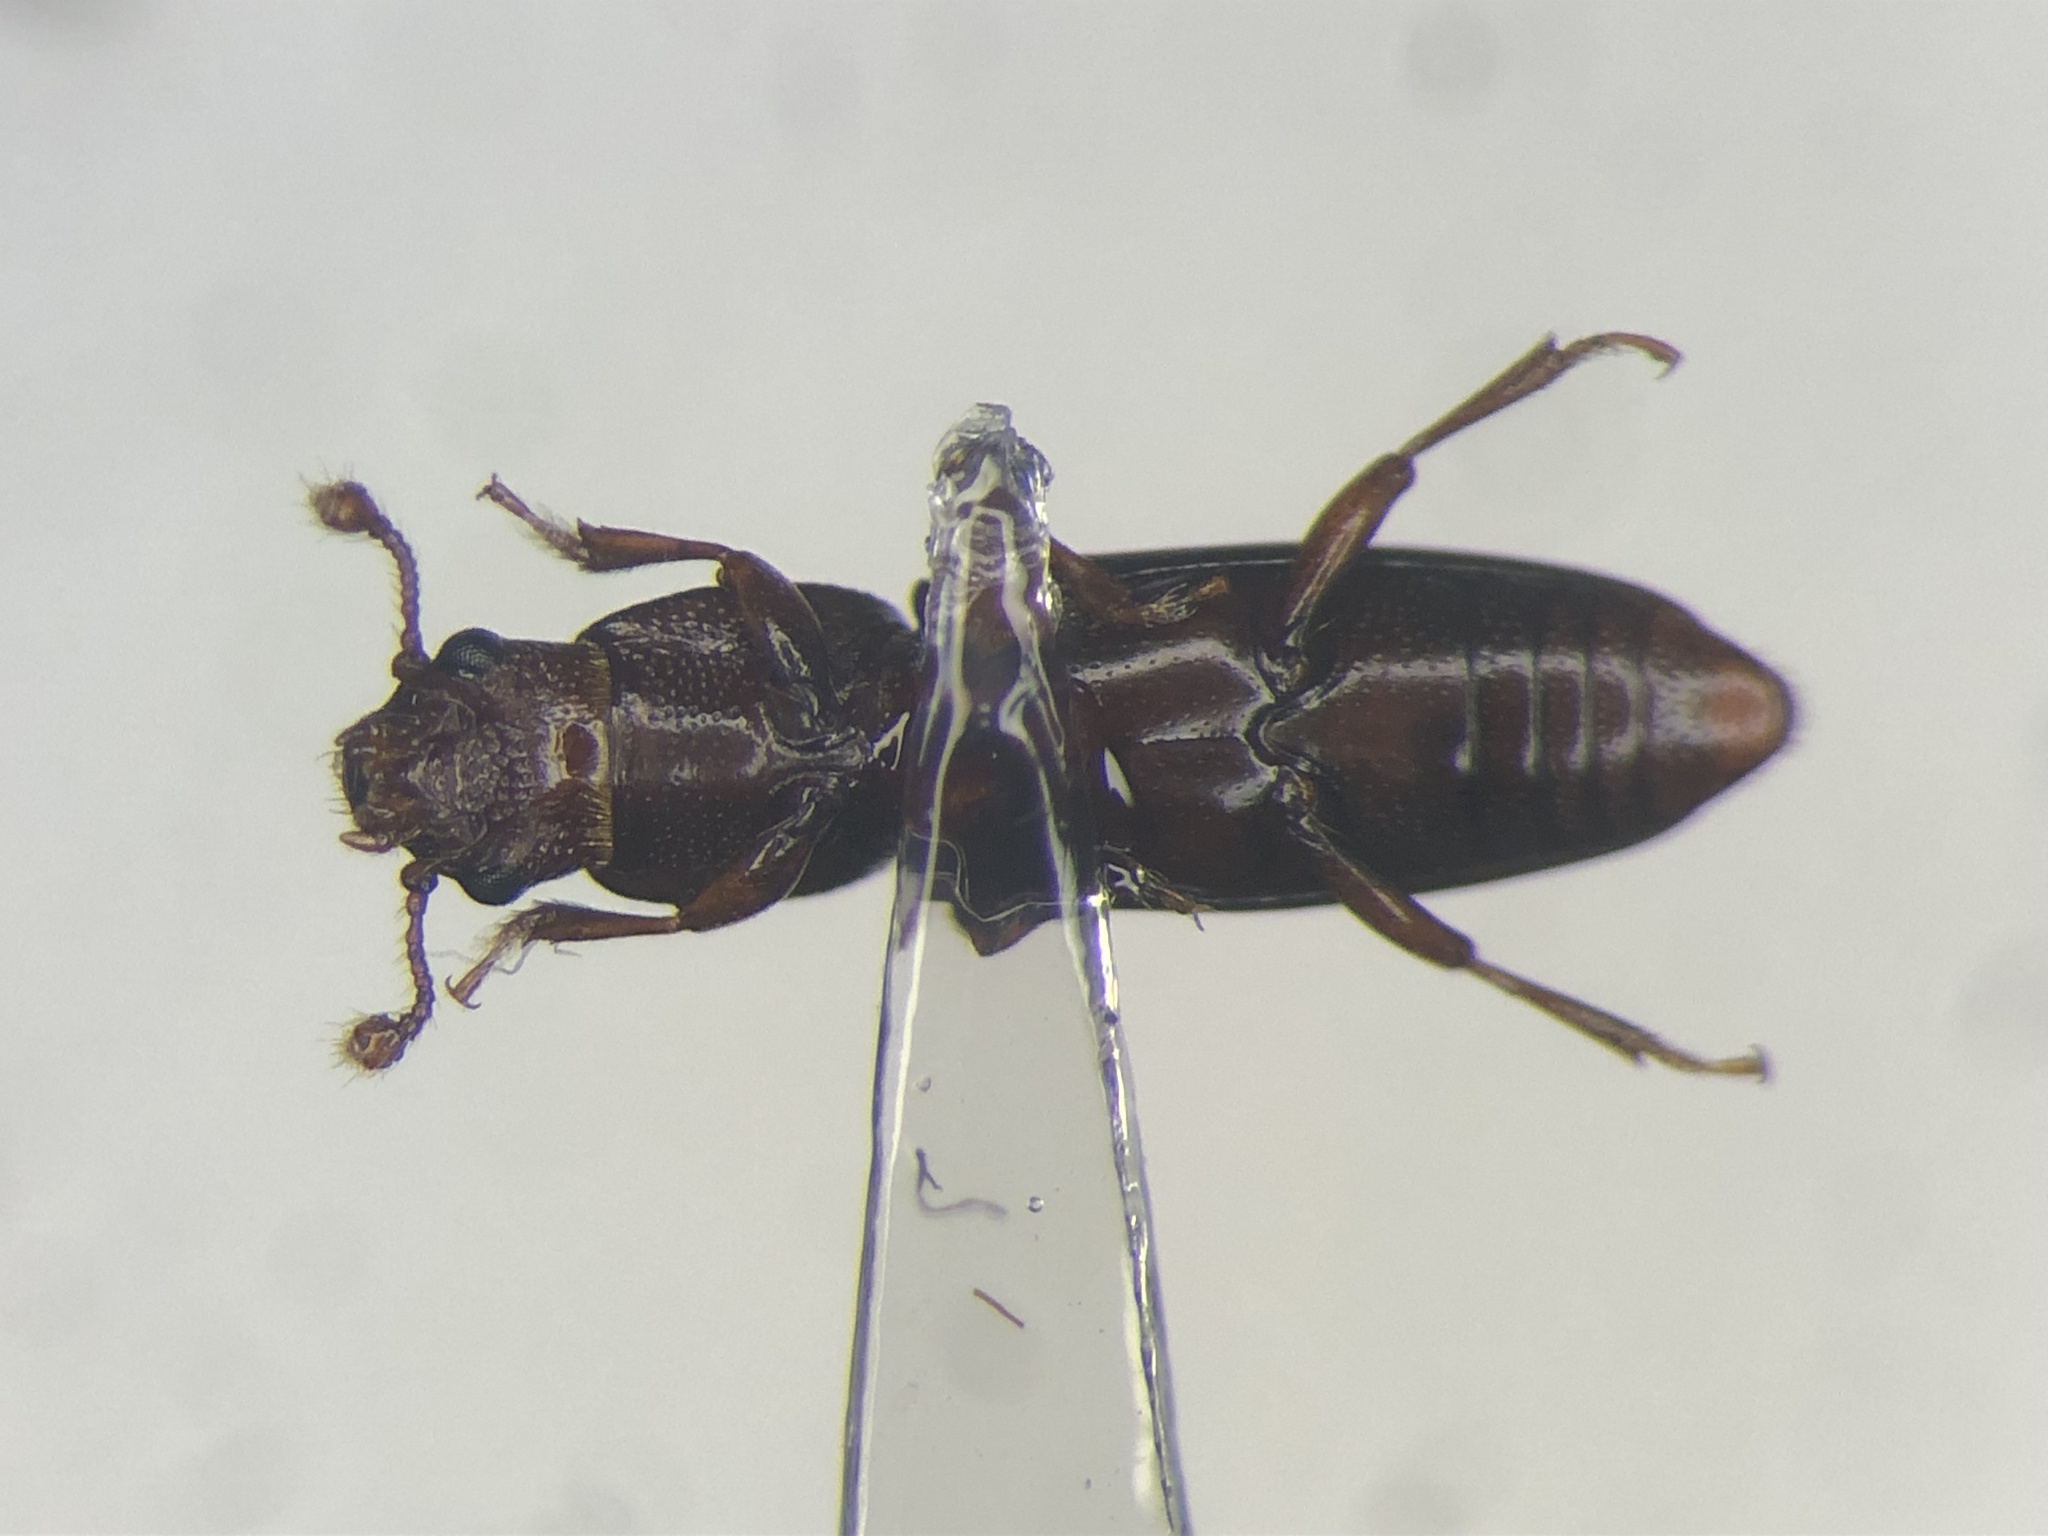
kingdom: Animalia
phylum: Arthropoda
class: Insecta
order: Coleoptera
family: Monotomidae
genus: Rhizophagus
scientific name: Rhizophagus dimidiatus
